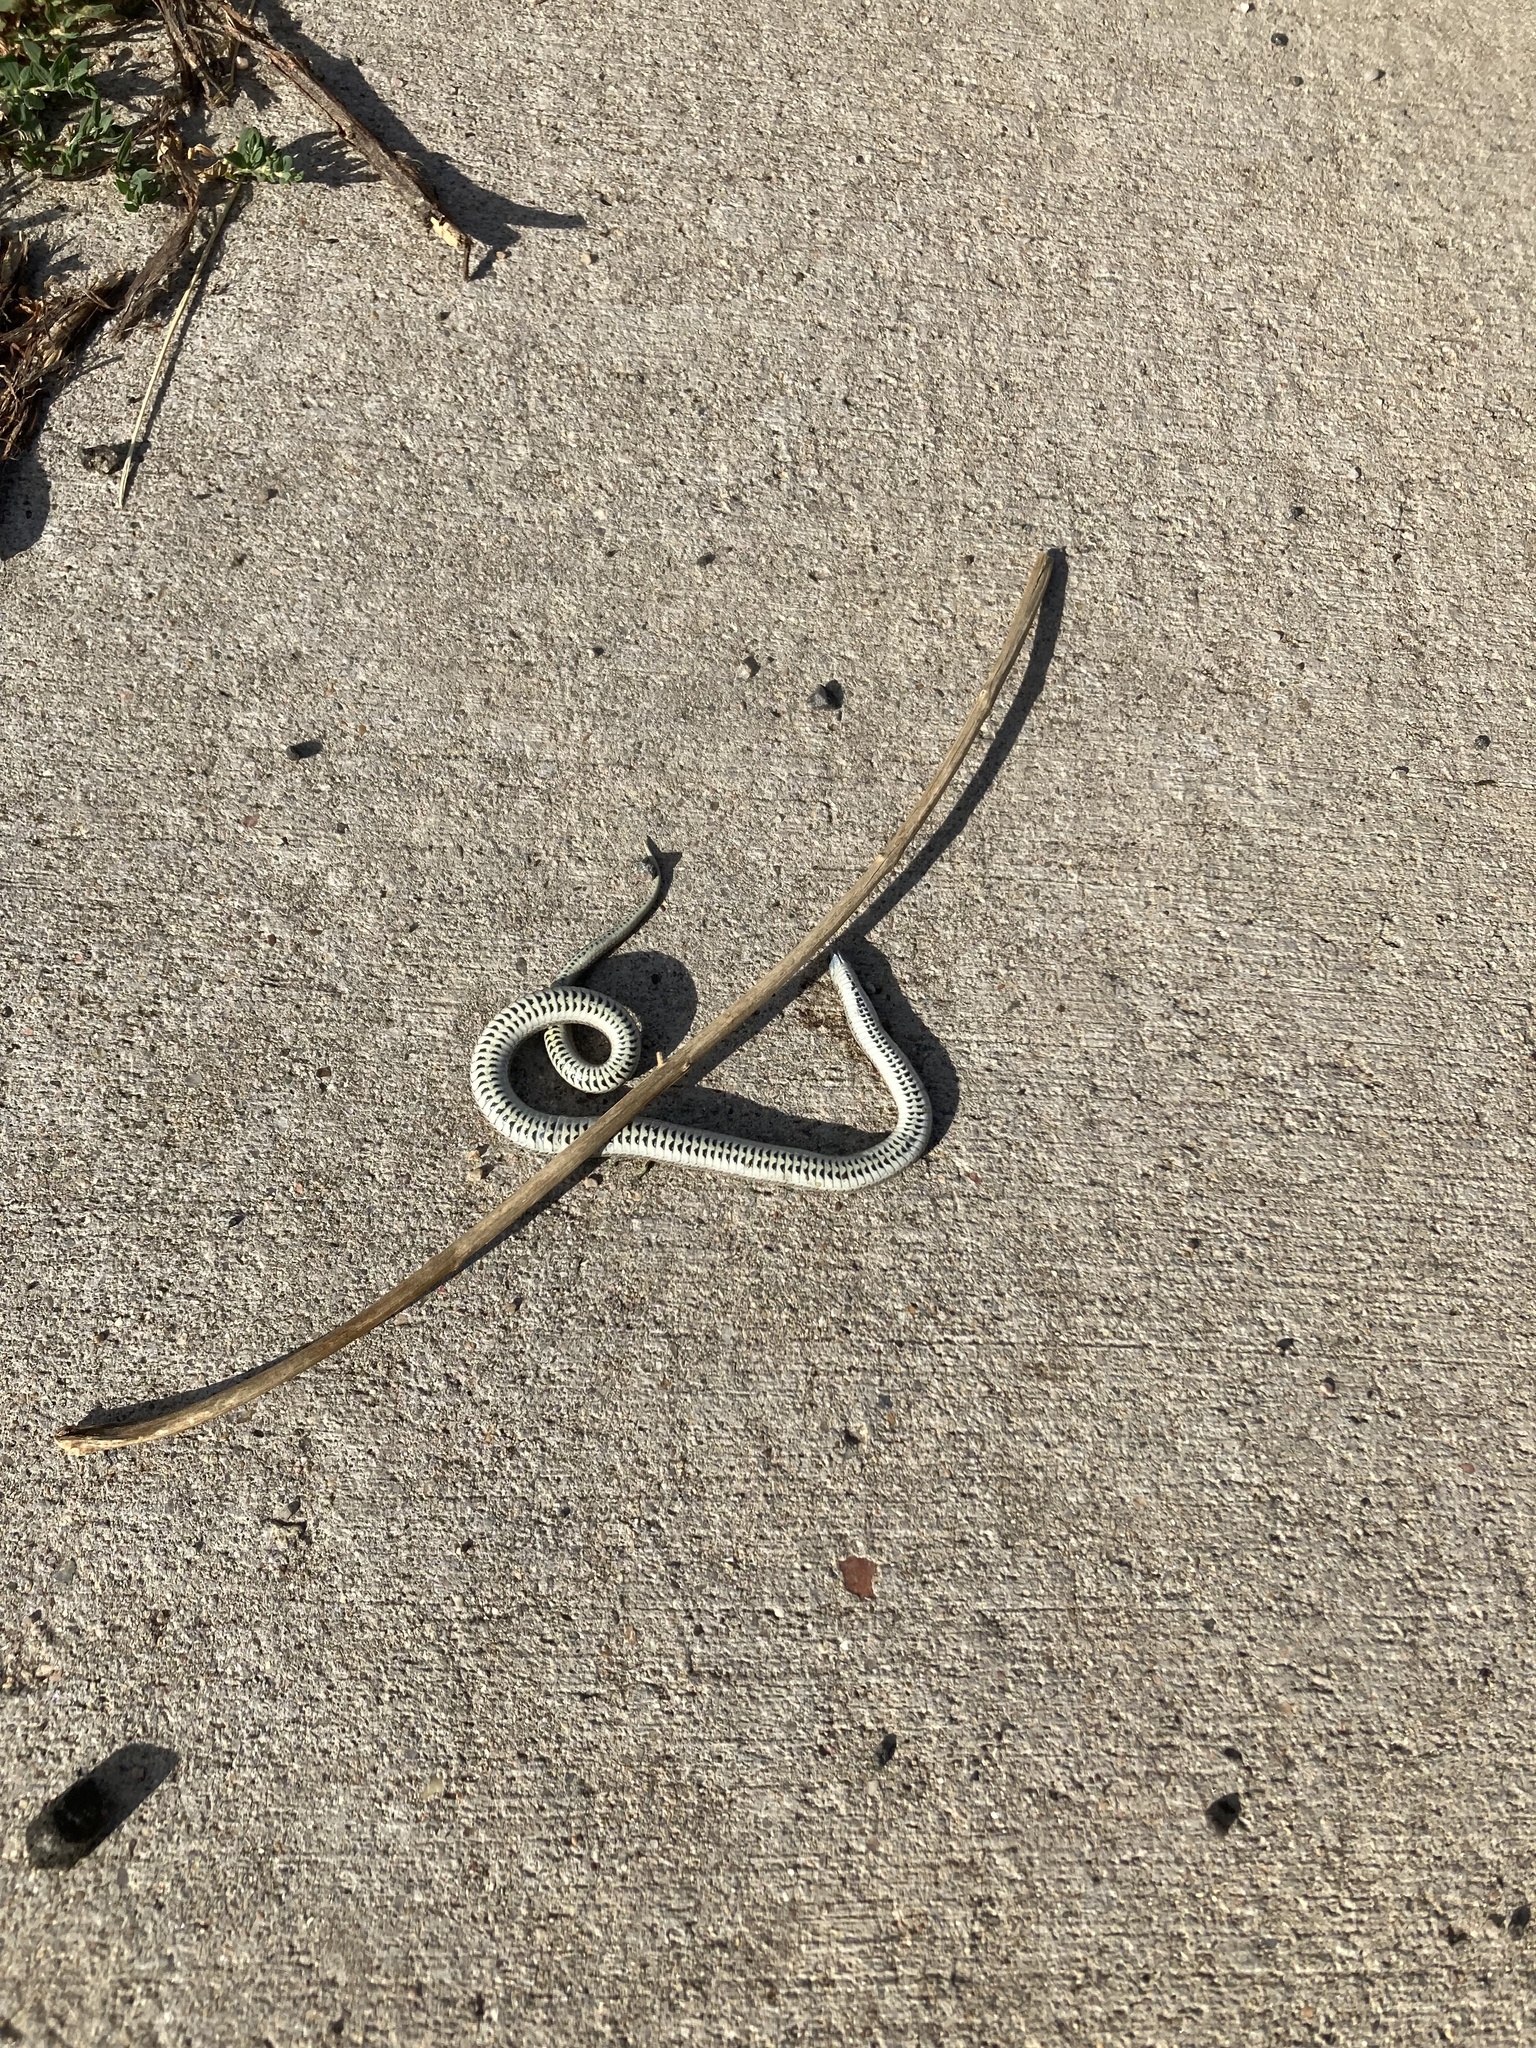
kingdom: Animalia
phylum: Chordata
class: Squamata
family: Colubridae
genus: Tropidoclonion
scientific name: Tropidoclonion lineatum
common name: Lined snake
